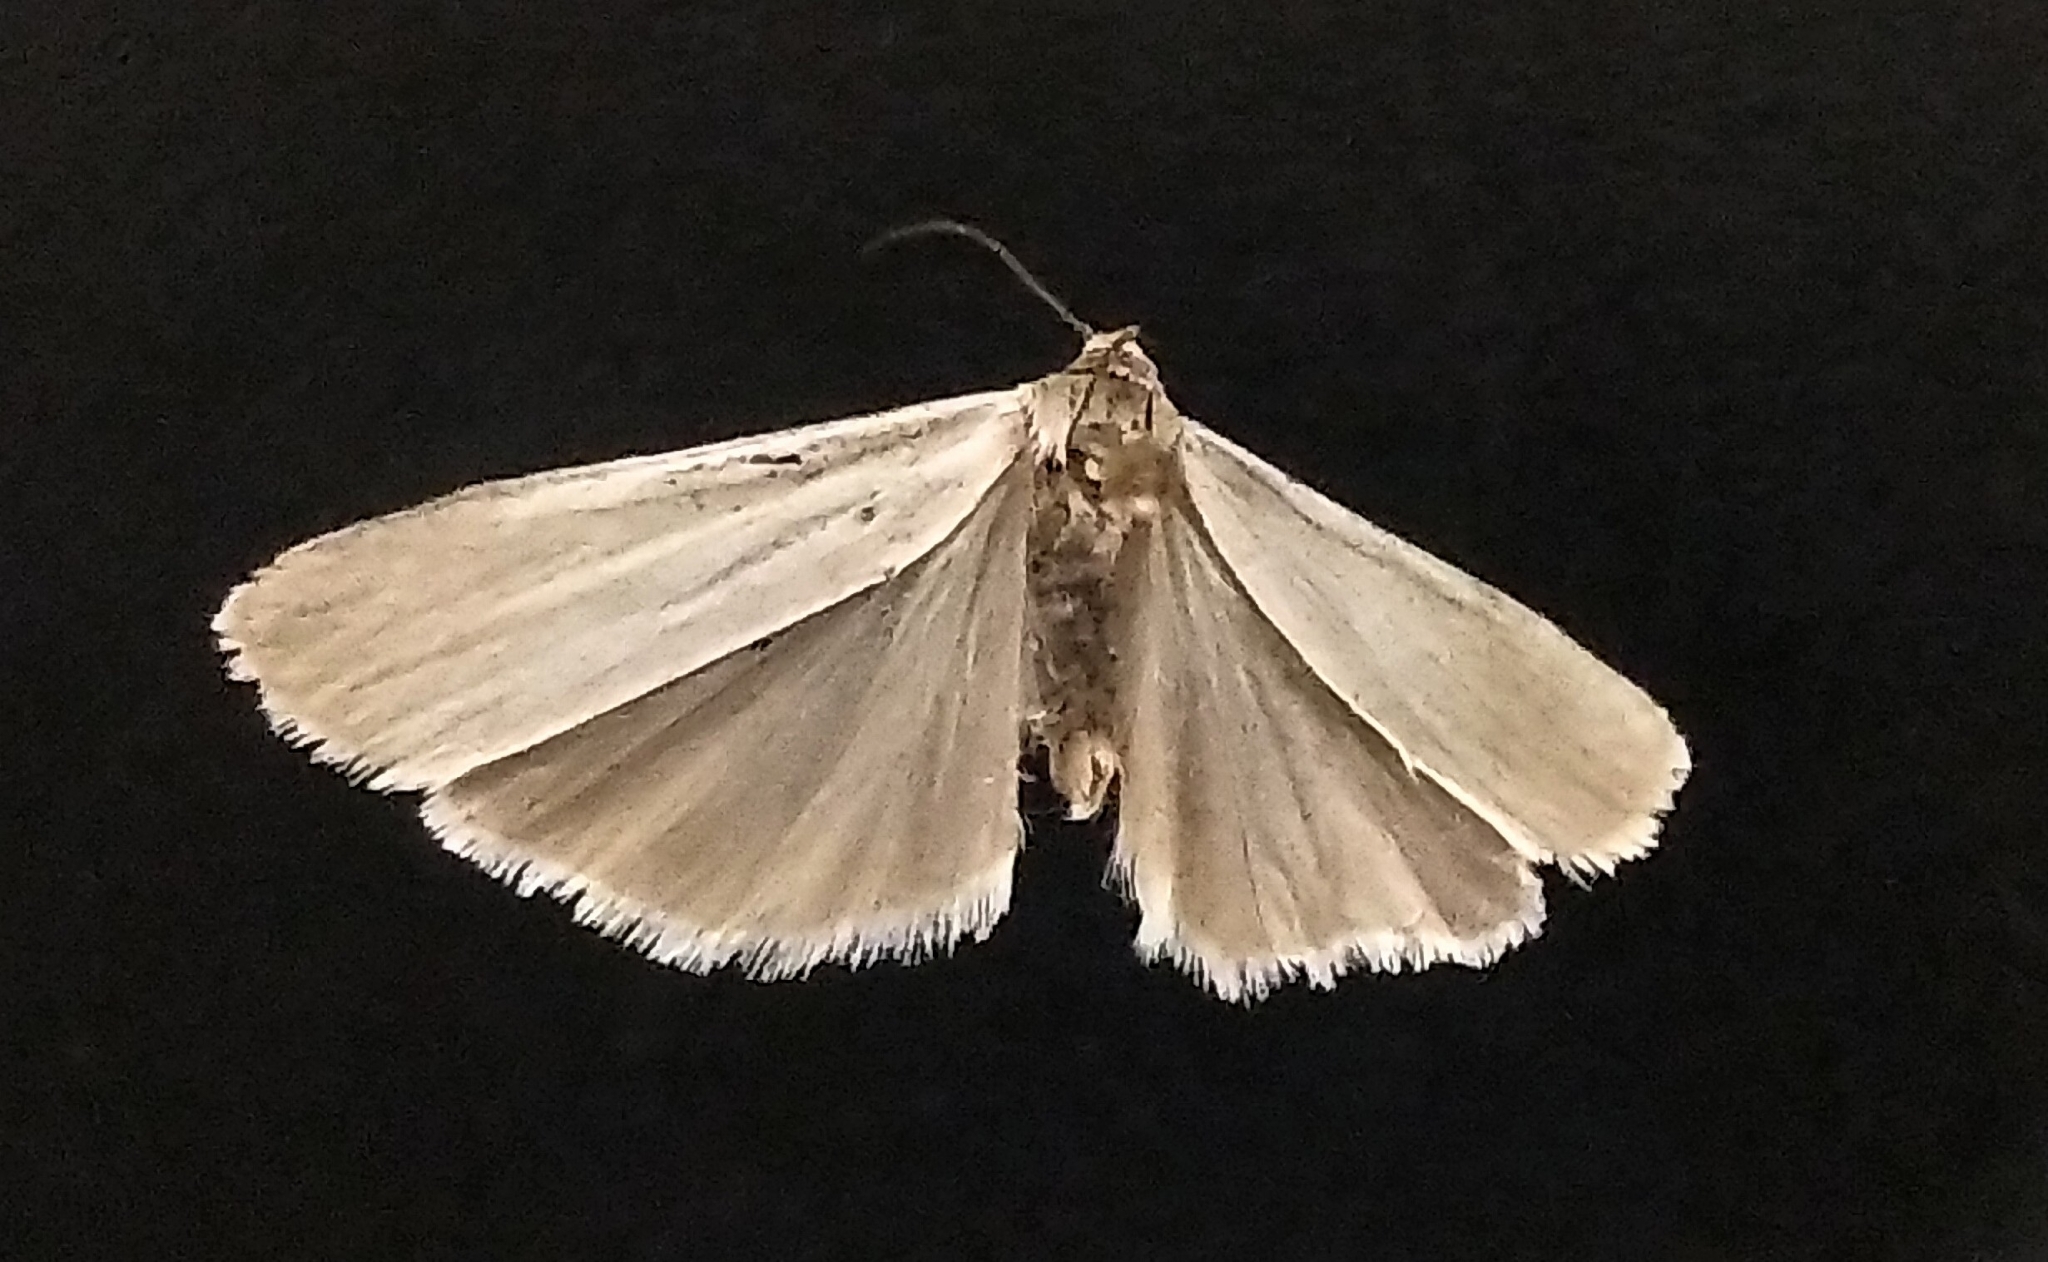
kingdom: Animalia
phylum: Arthropoda
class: Insecta
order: Lepidoptera
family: Erebidae
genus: Crambidia
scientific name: Crambidia casta
